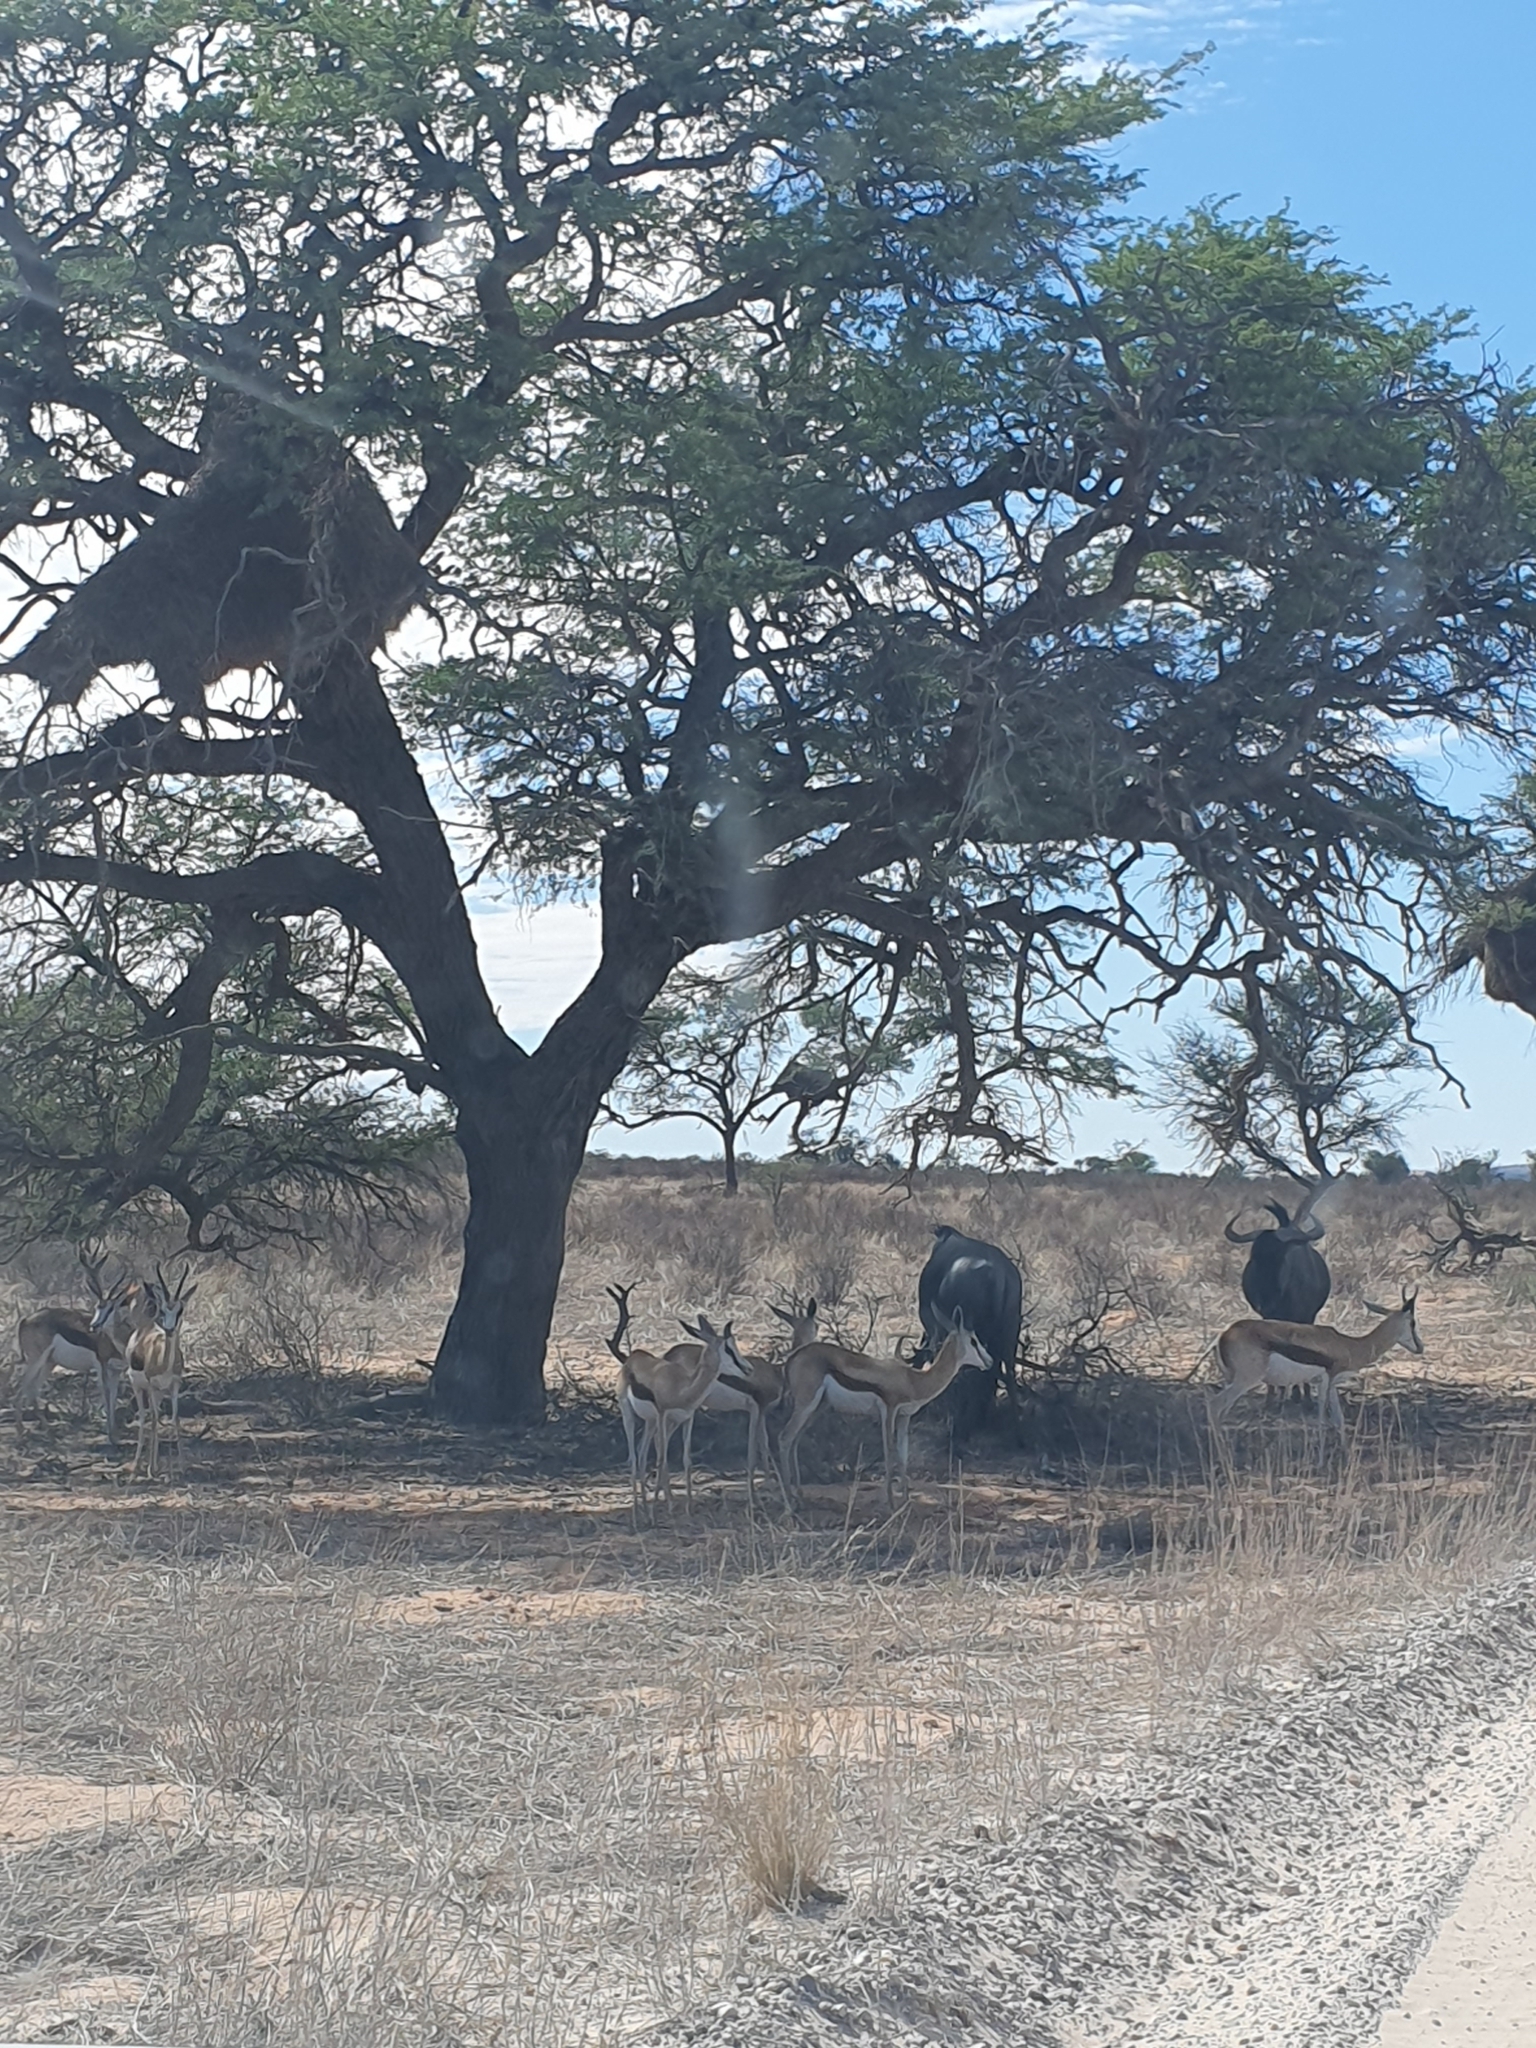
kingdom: Animalia
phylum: Chordata
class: Mammalia
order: Artiodactyla
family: Bovidae
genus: Connochaetes
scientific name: Connochaetes taurinus
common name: Blue wildebeest
